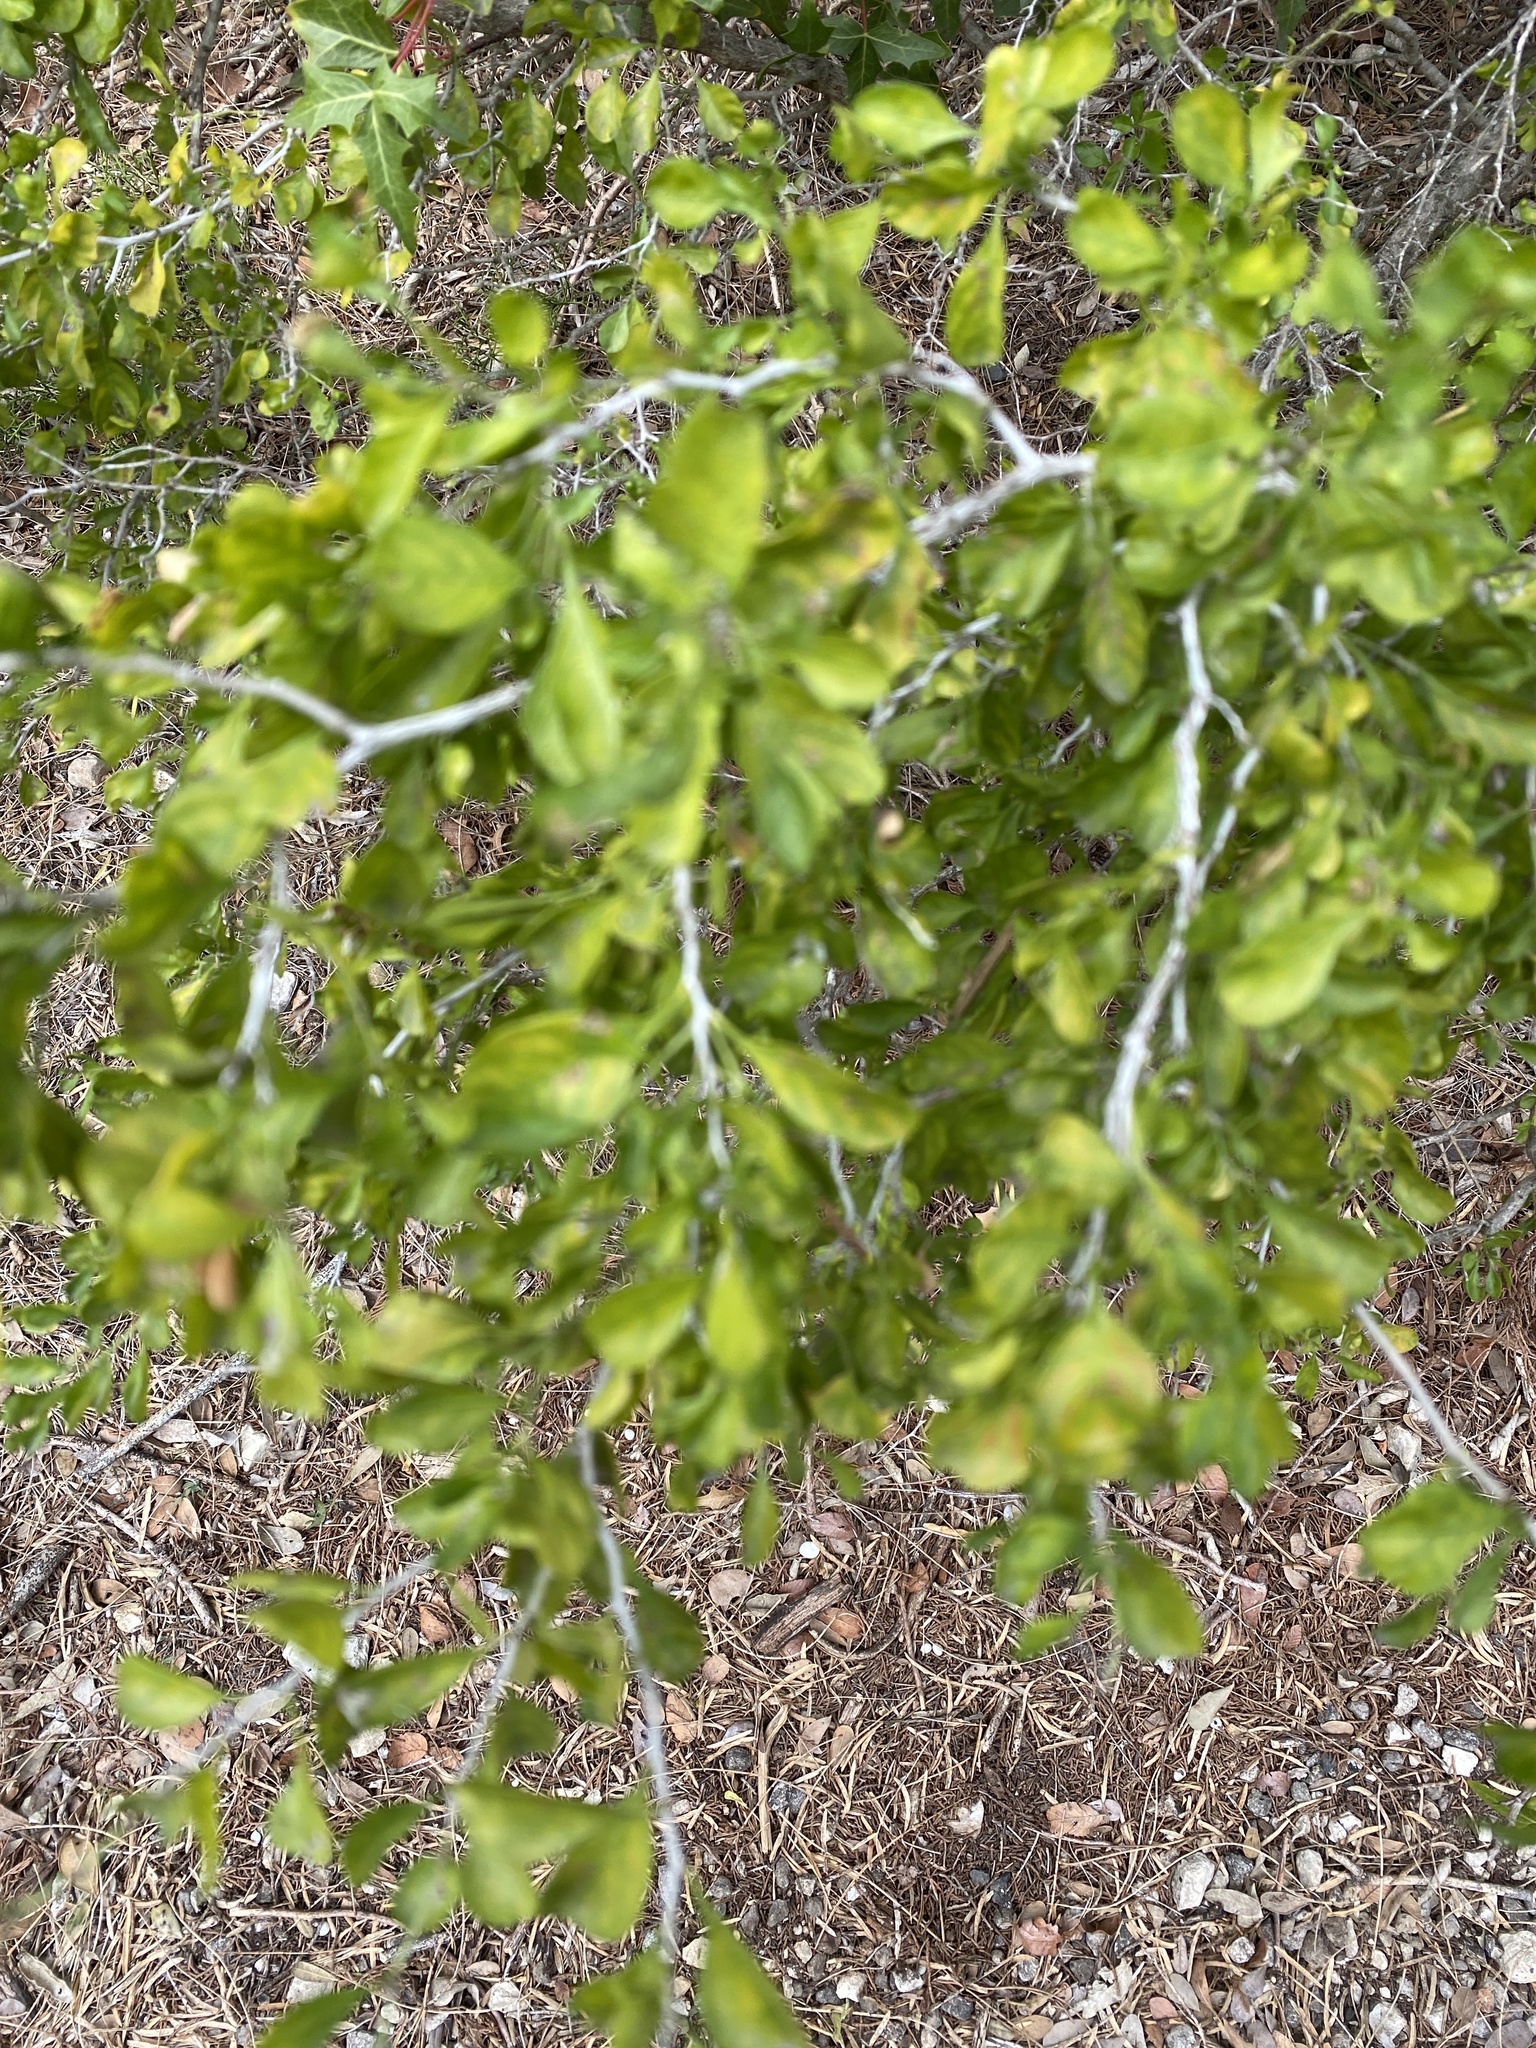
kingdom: Plantae
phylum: Tracheophyta
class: Magnoliopsida
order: Rosales
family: Rhamnaceae
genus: Condalia
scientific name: Condalia hookeri
